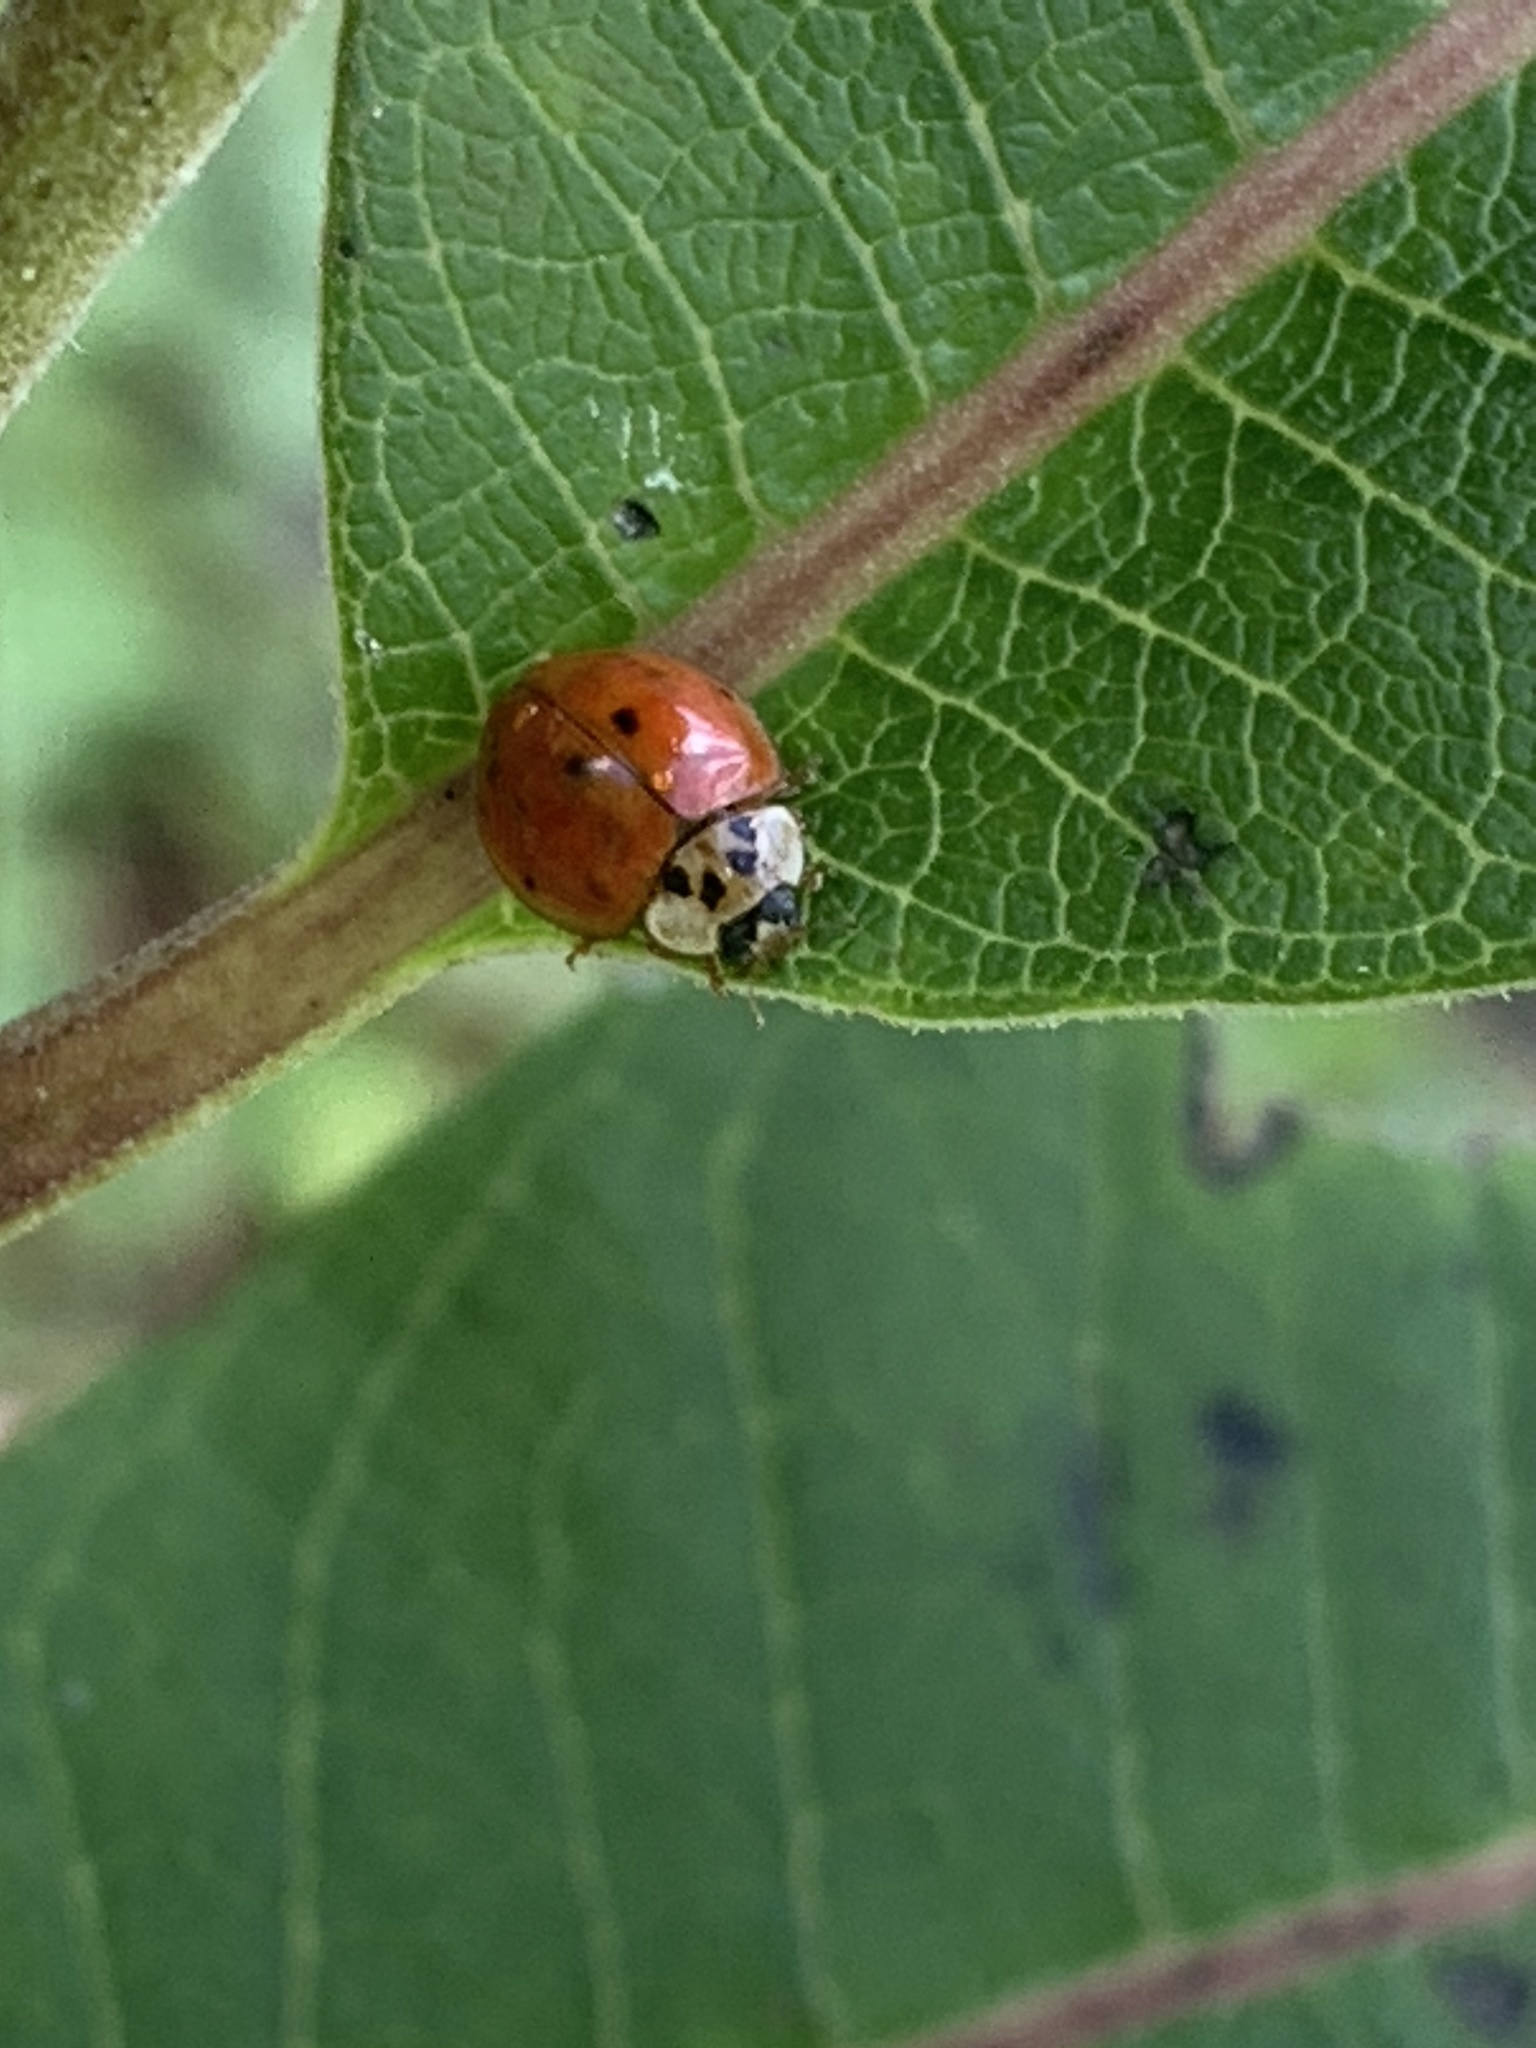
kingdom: Animalia
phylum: Arthropoda
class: Insecta
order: Coleoptera
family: Coccinellidae
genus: Harmonia
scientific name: Harmonia axyridis
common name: Harlequin ladybird
